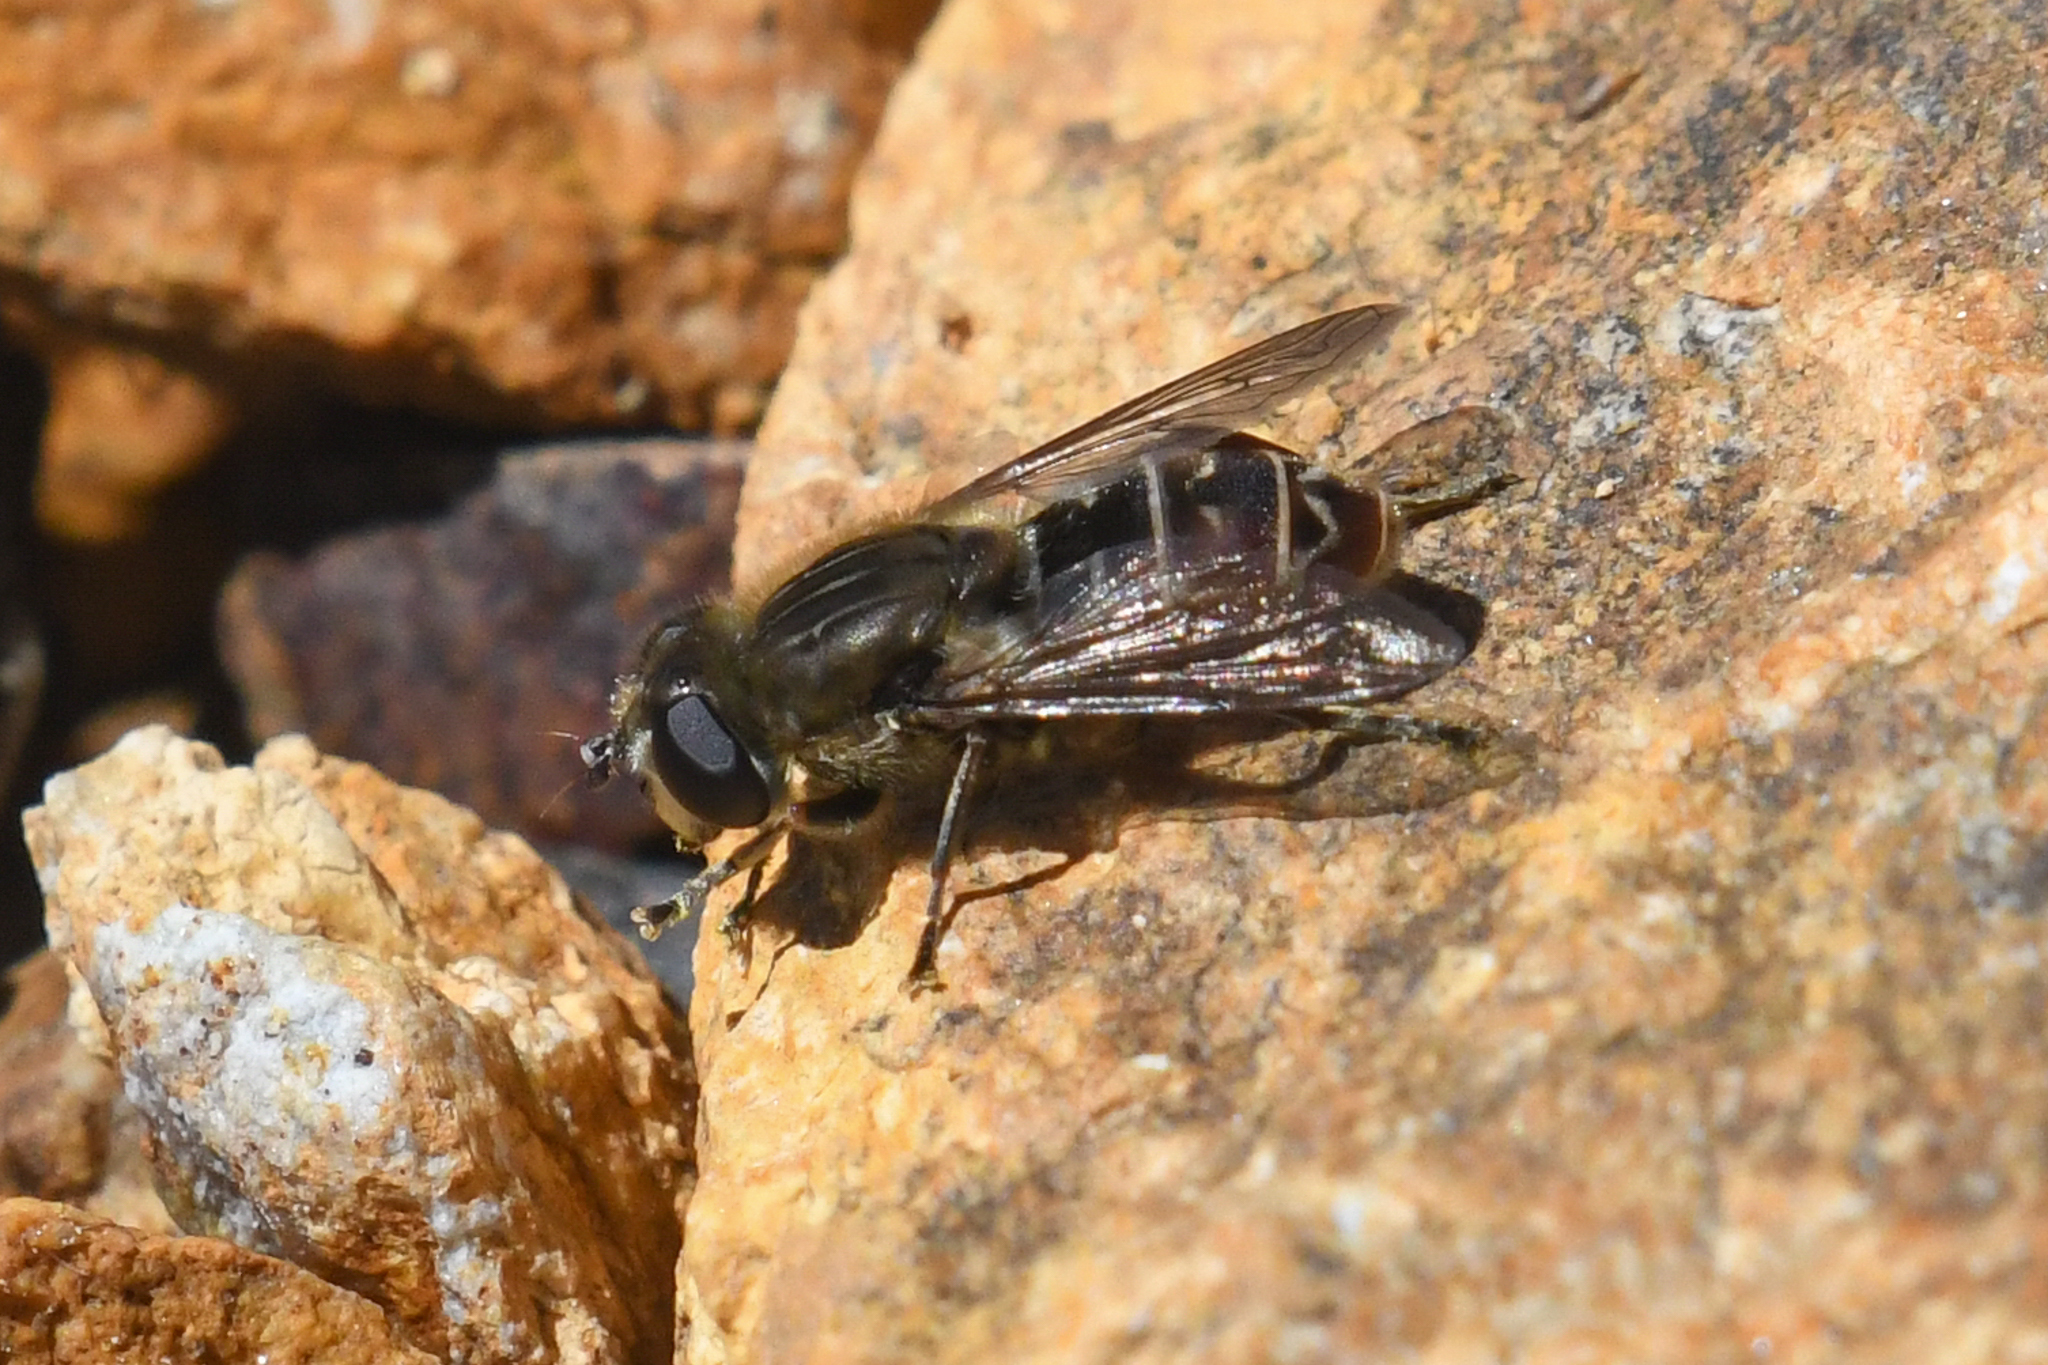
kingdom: Animalia
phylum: Arthropoda
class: Insecta
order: Diptera
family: Syrphidae
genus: Asemosyrphus
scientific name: Asemosyrphus polygrammus
